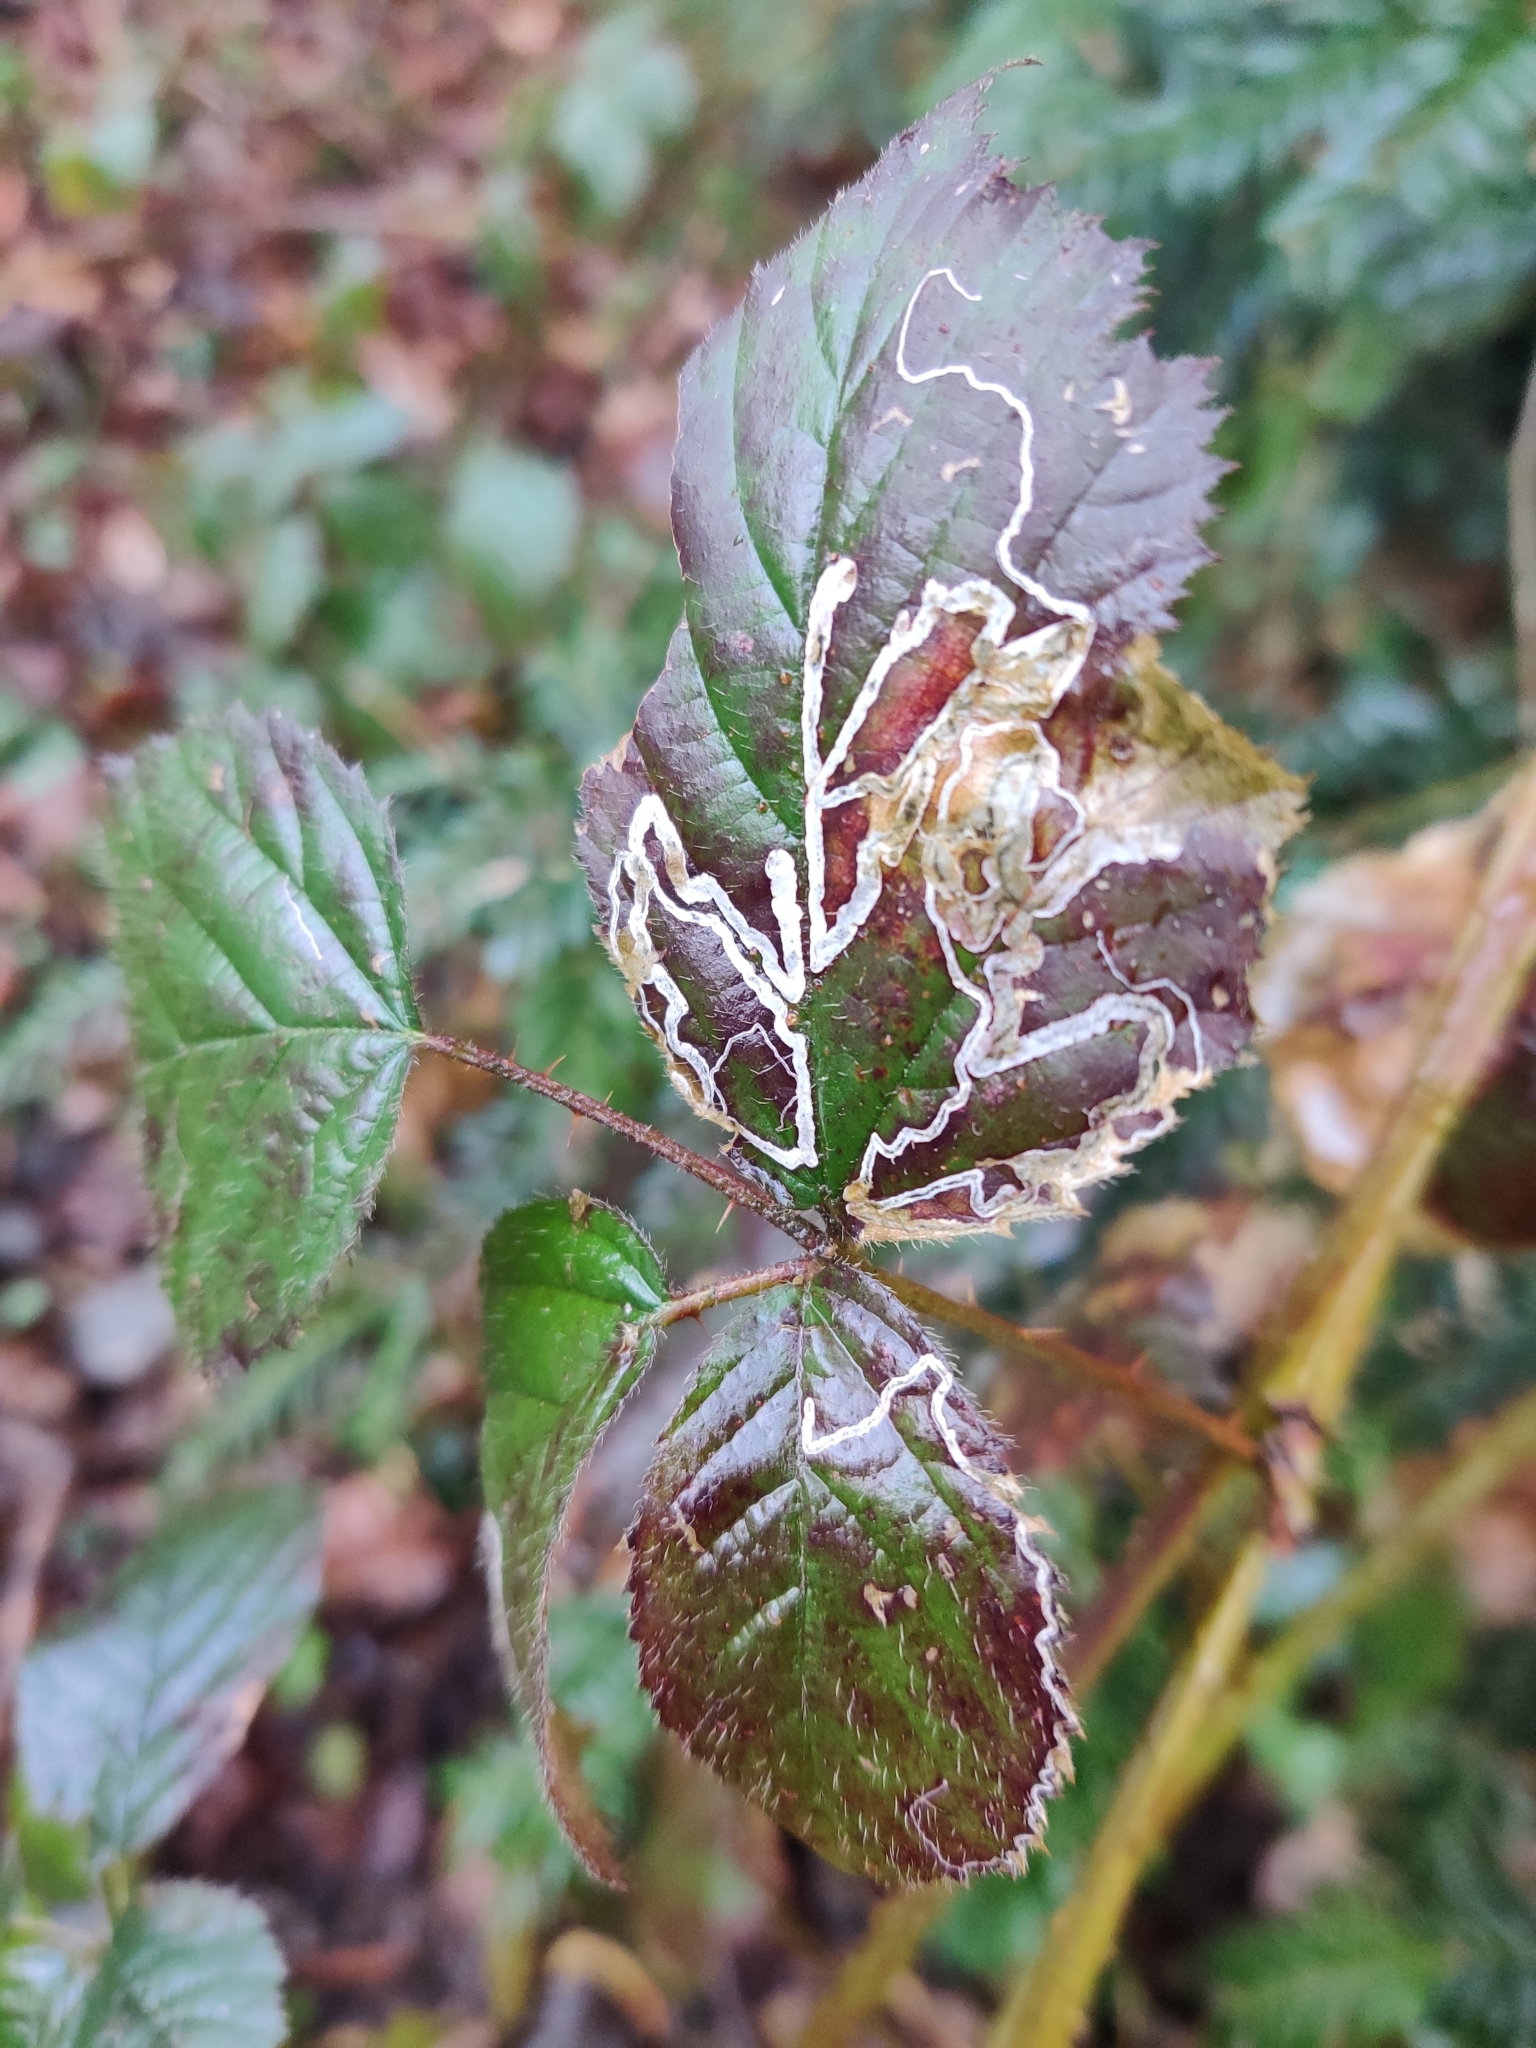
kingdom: Animalia
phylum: Arthropoda
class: Insecta
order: Lepidoptera
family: Nepticulidae
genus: Stigmella
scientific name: Stigmella aurella
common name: Golden pigmy
